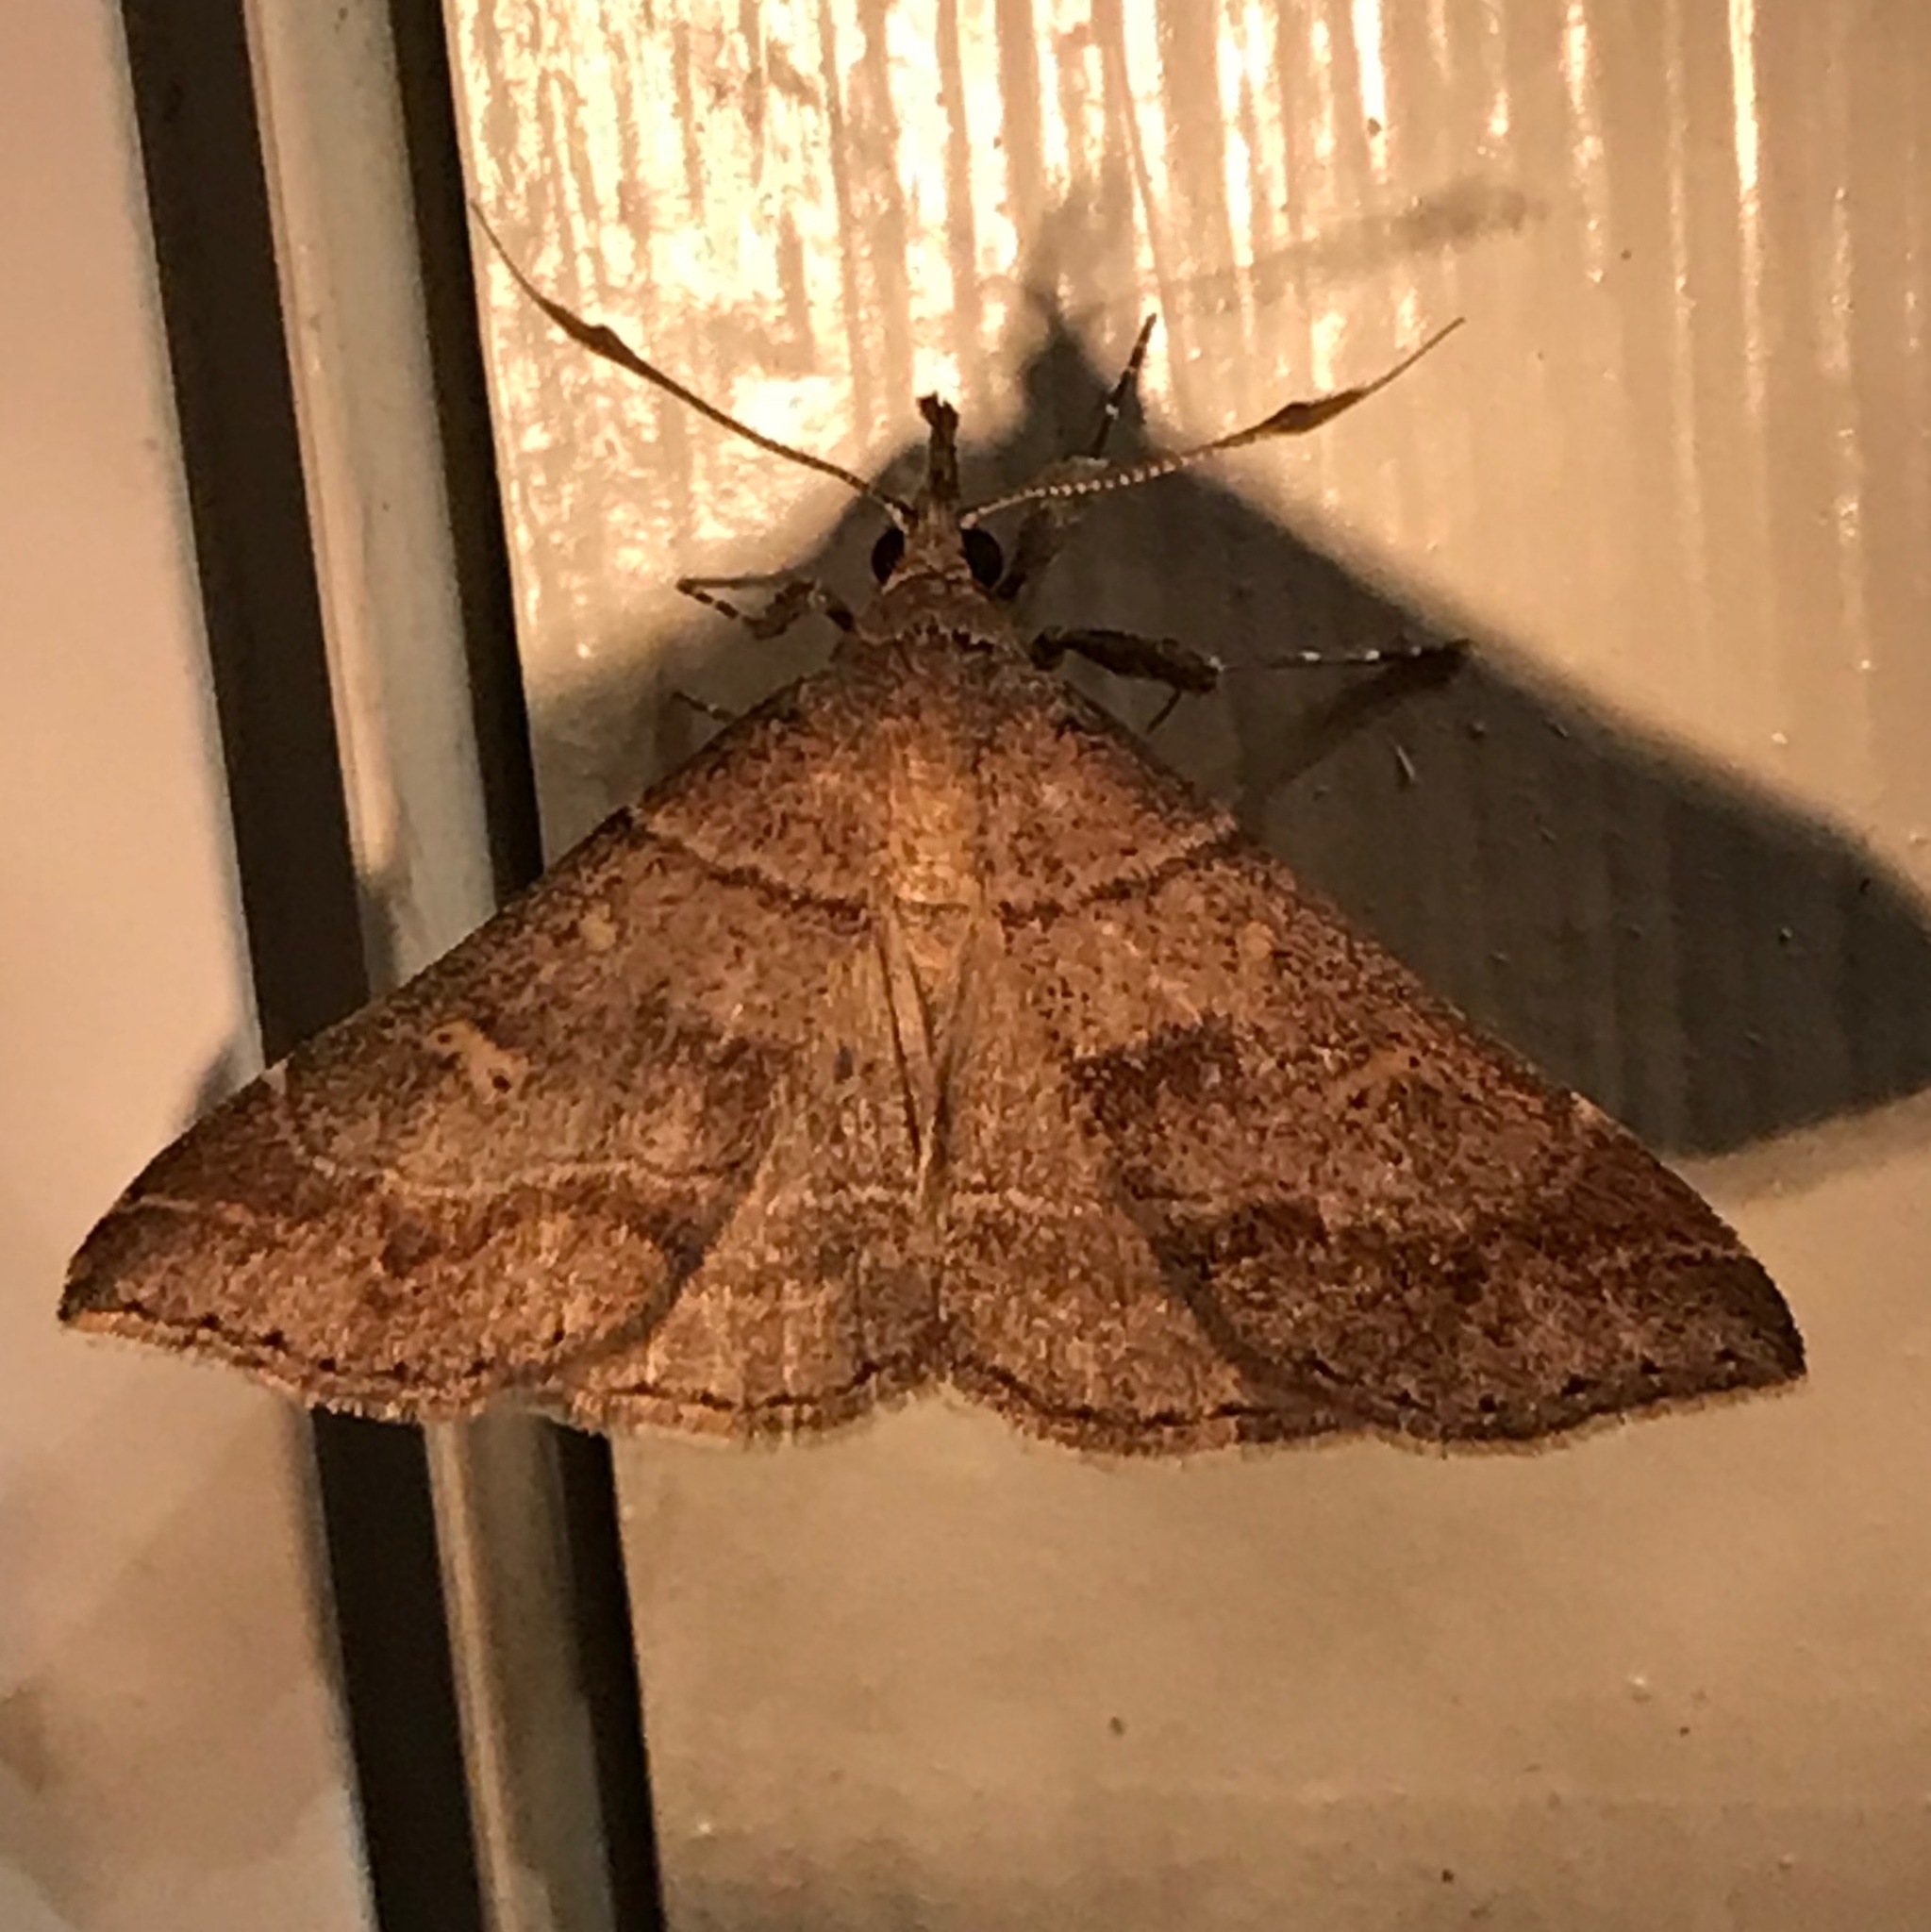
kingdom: Animalia
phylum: Arthropoda
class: Insecta
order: Lepidoptera
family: Erebidae
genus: Renia
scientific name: Renia flavipunctalis
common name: Yellow-spotted renia moth
